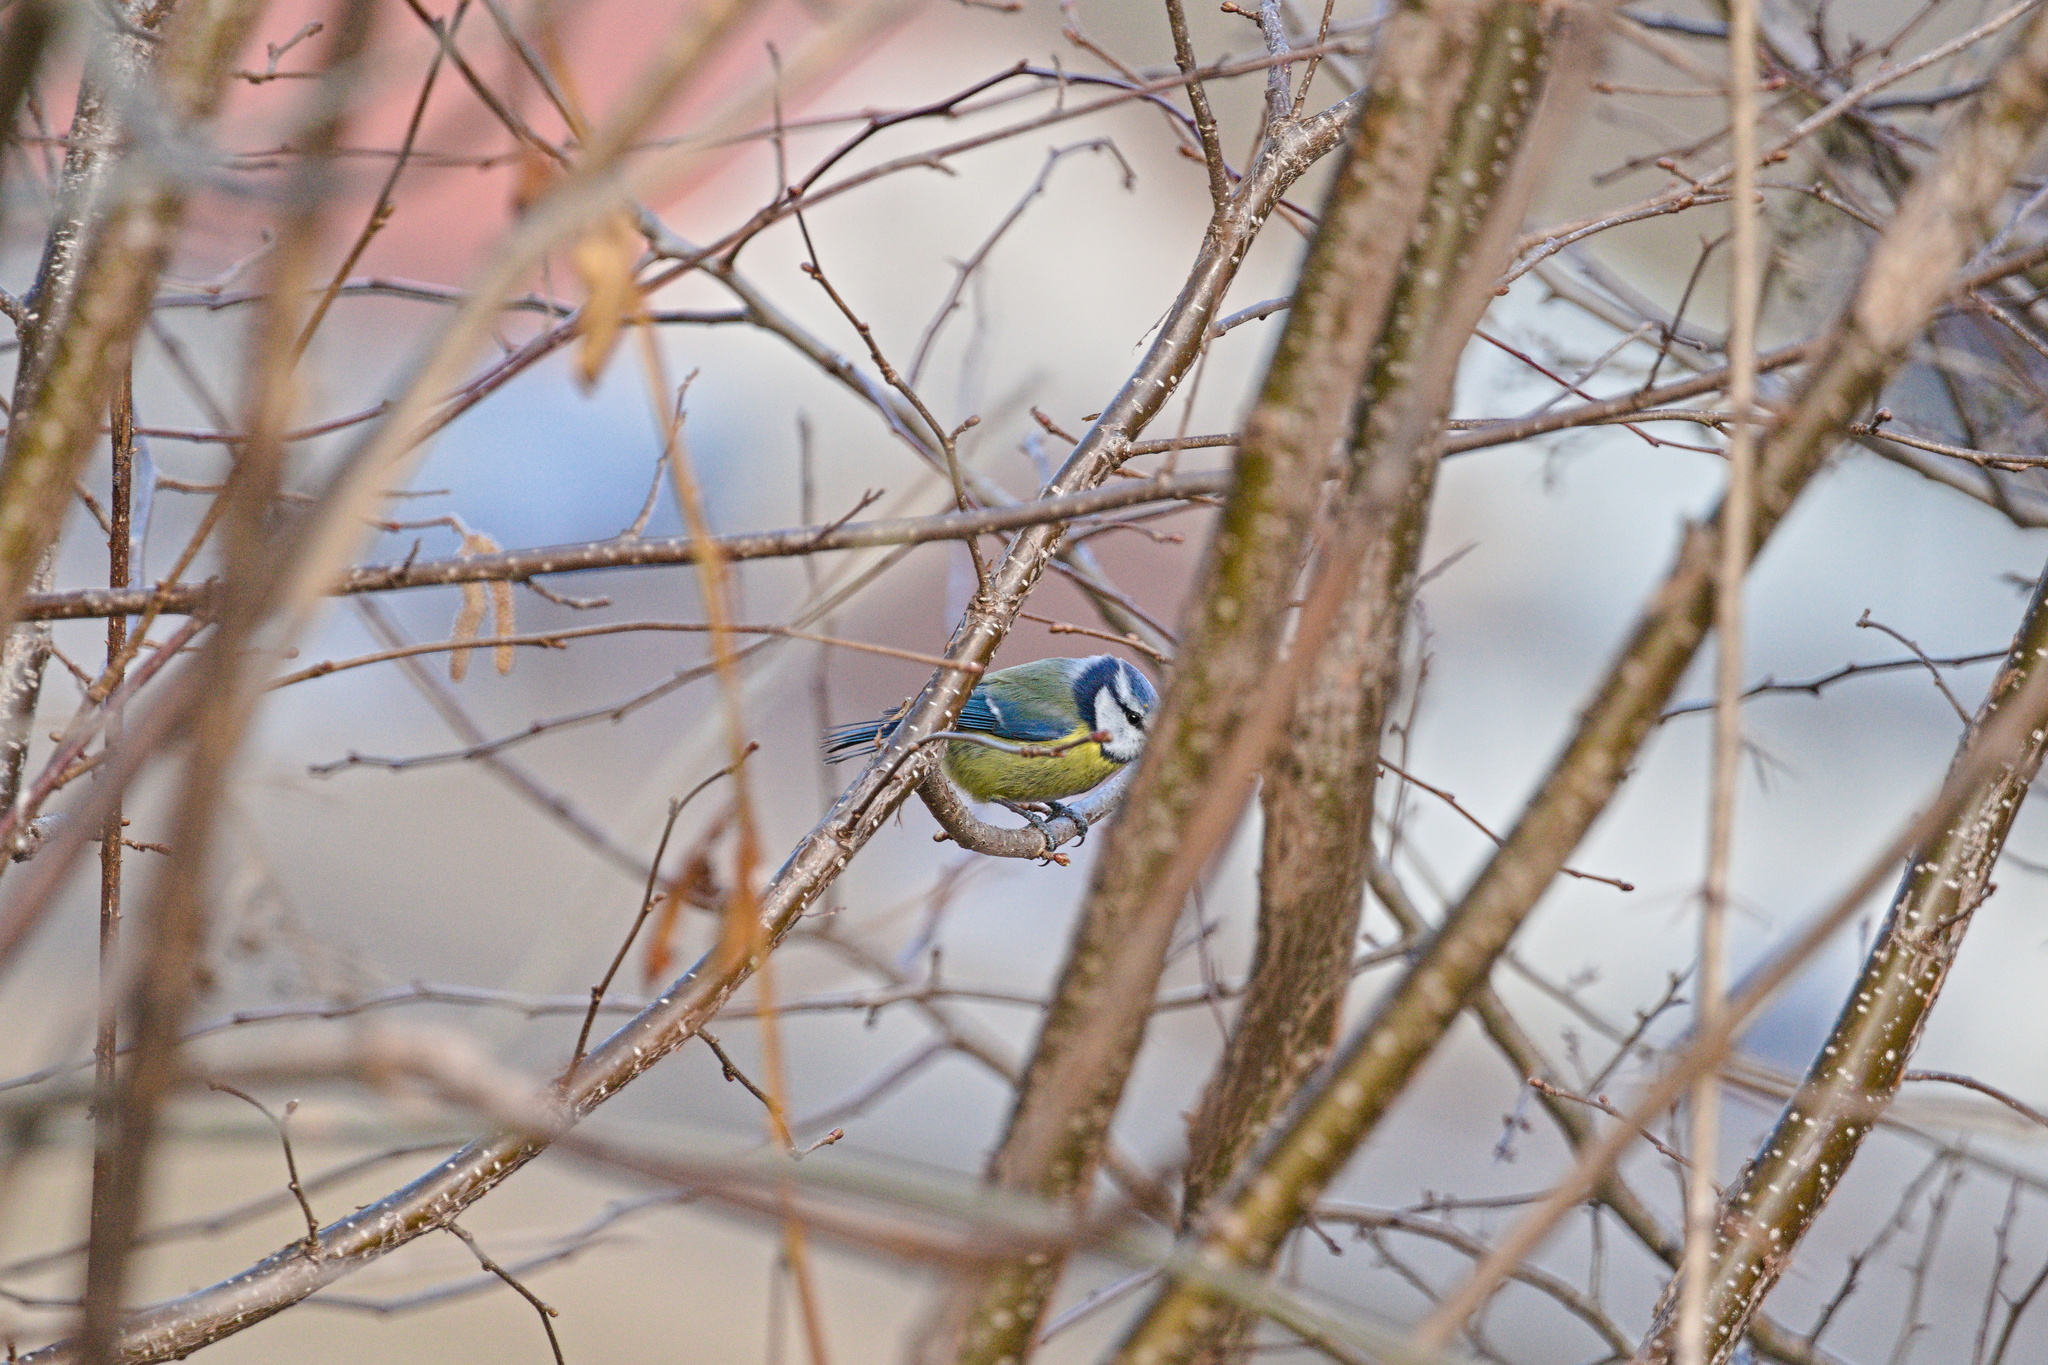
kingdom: Animalia
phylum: Chordata
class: Aves
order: Passeriformes
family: Paridae
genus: Cyanistes
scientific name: Cyanistes caeruleus
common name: Eurasian blue tit
